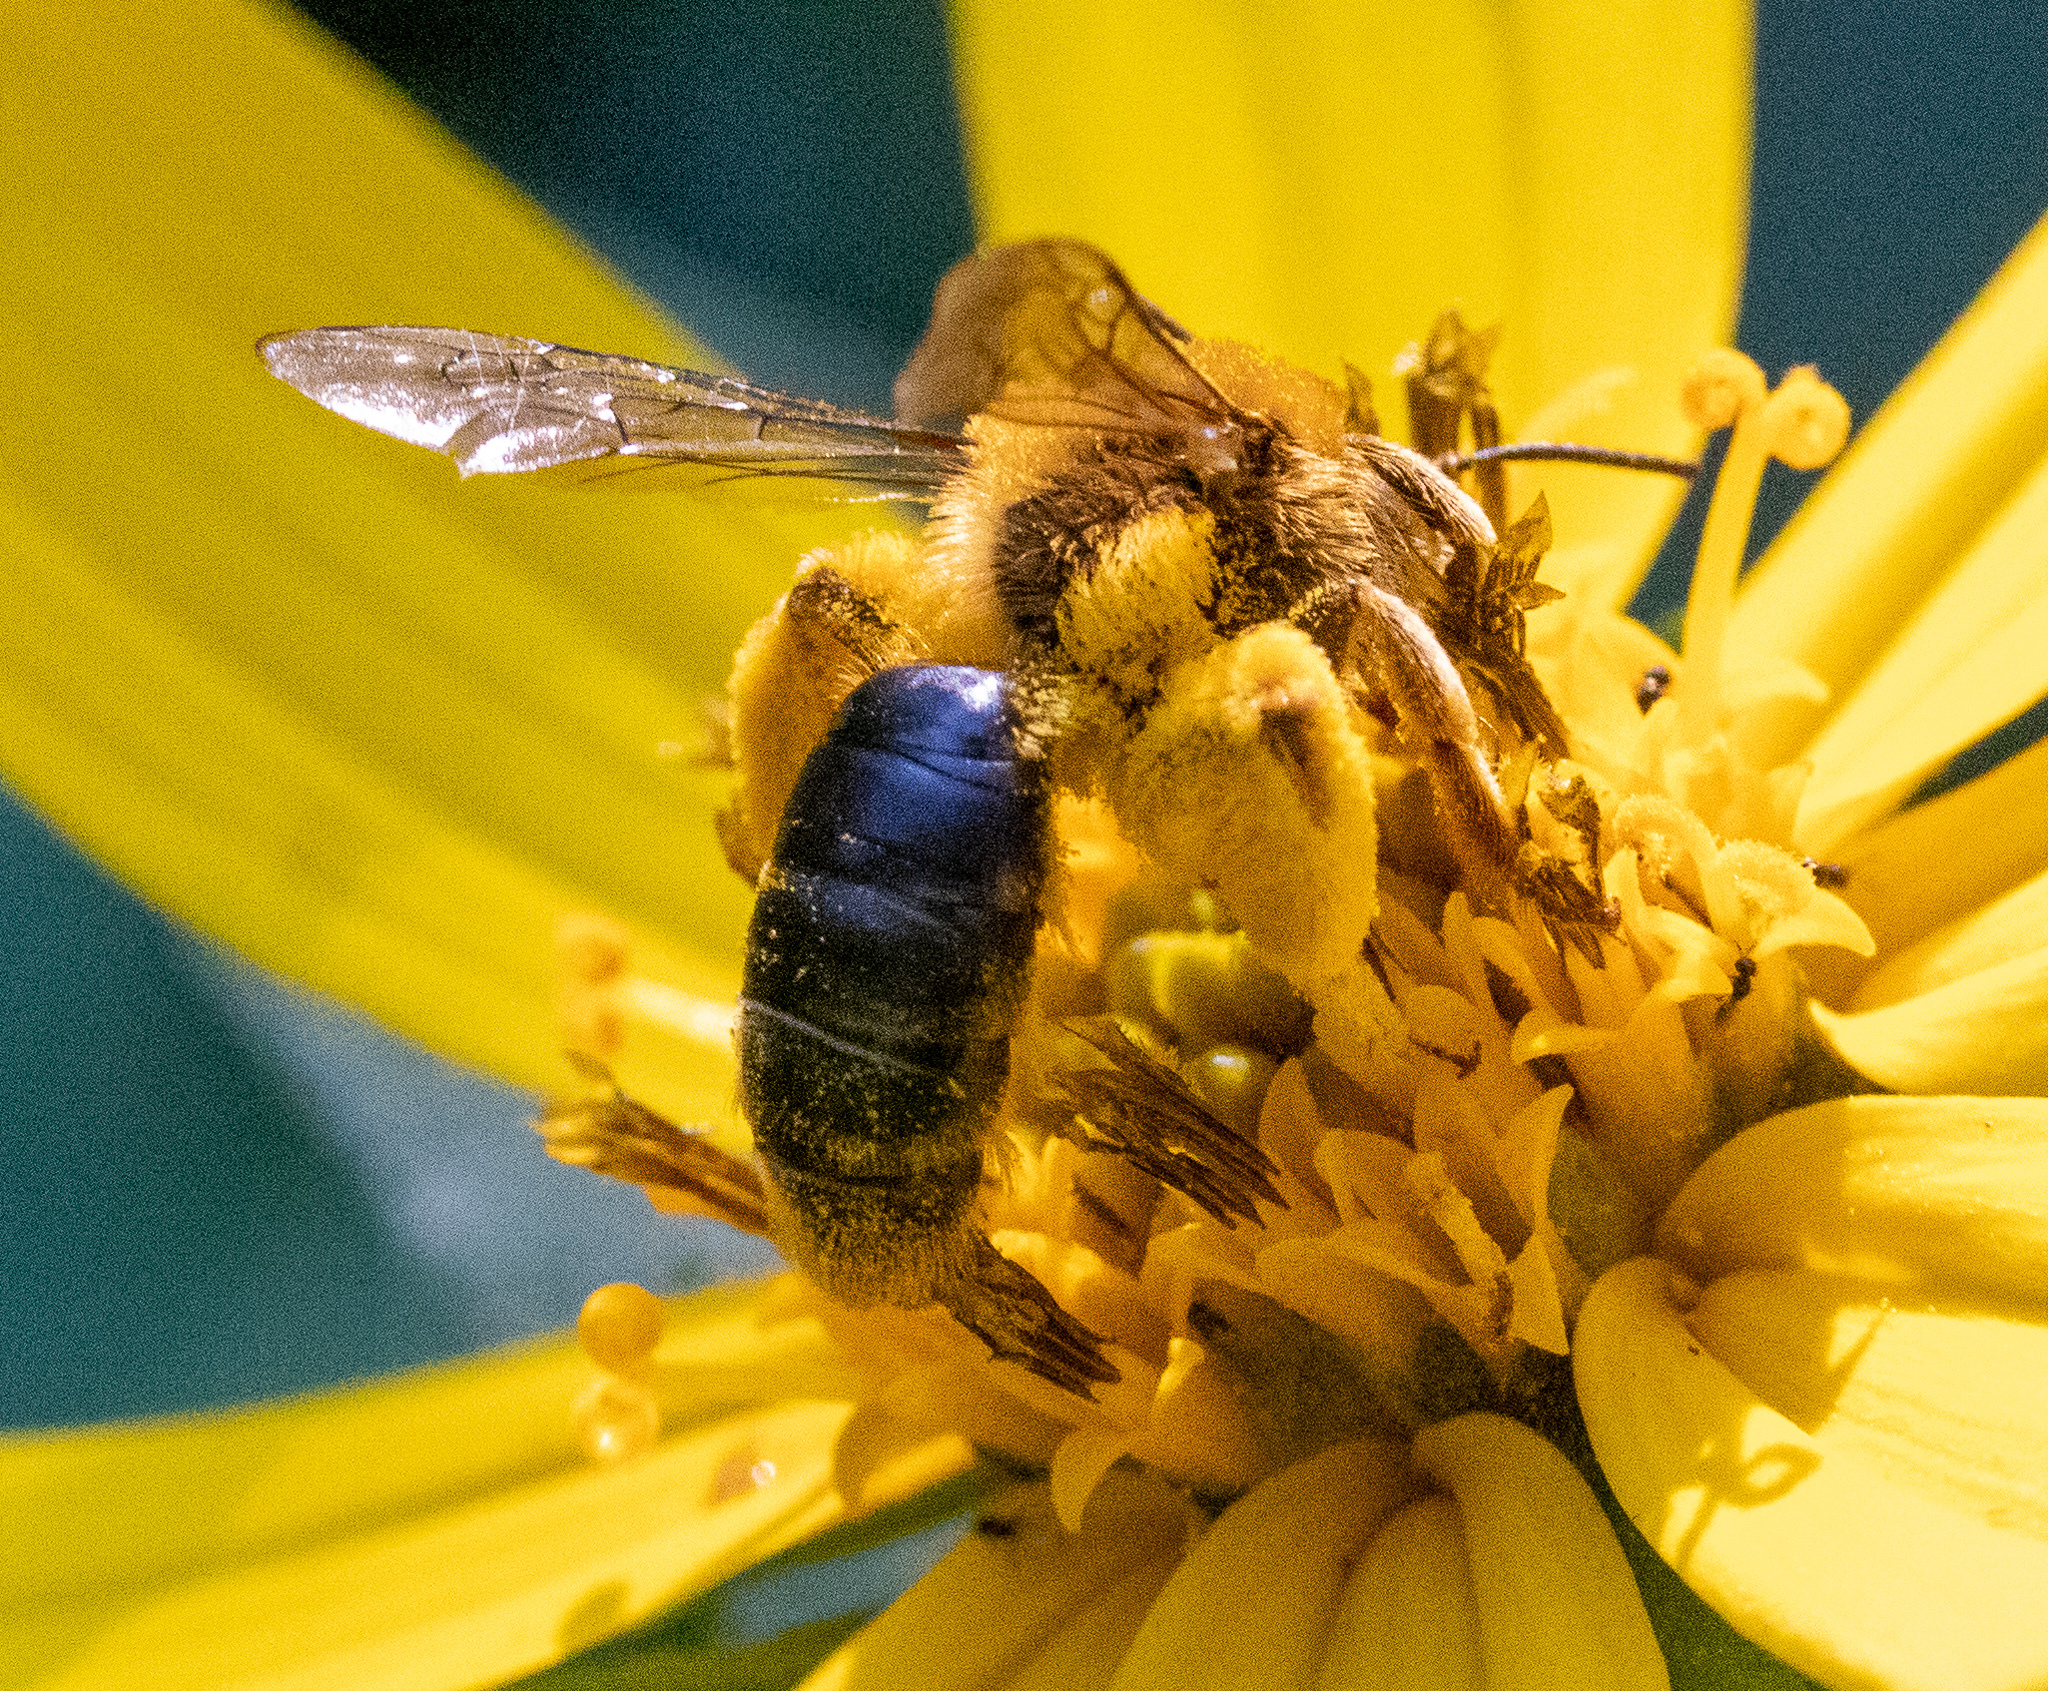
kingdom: Animalia
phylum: Arthropoda
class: Insecta
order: Hymenoptera
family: Andrenidae
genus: Andrena
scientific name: Andrena helianthi
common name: Sunflower mining bee
